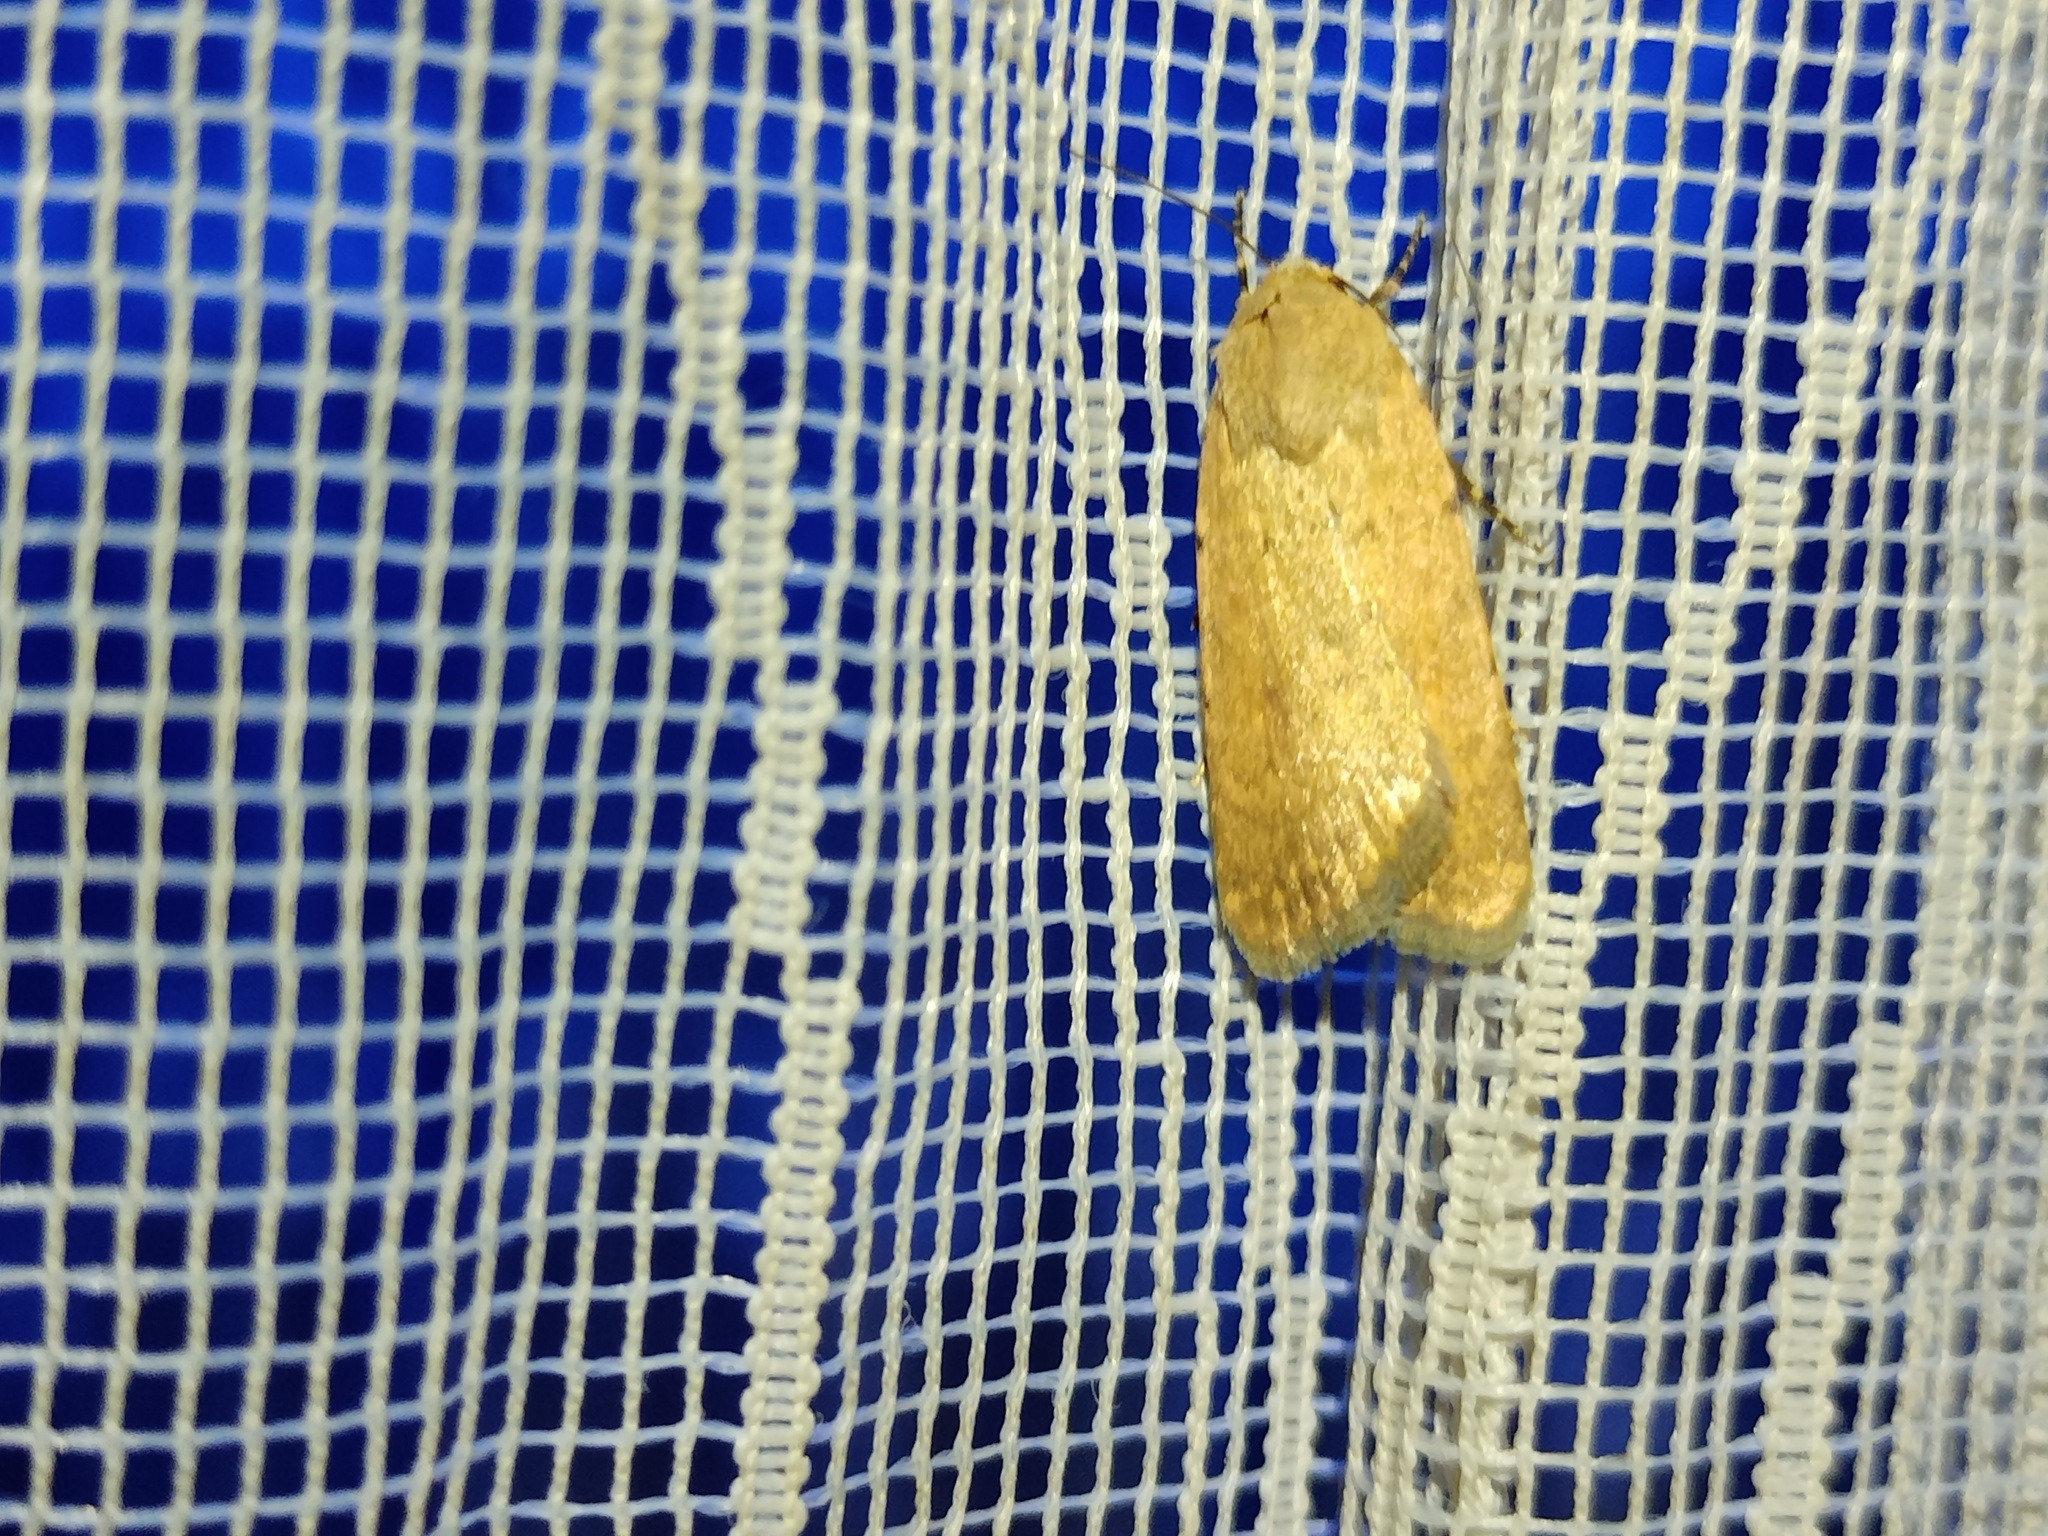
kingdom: Animalia
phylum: Arthropoda
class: Insecta
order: Lepidoptera
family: Noctuidae
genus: Caradrina
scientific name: Caradrina flava
